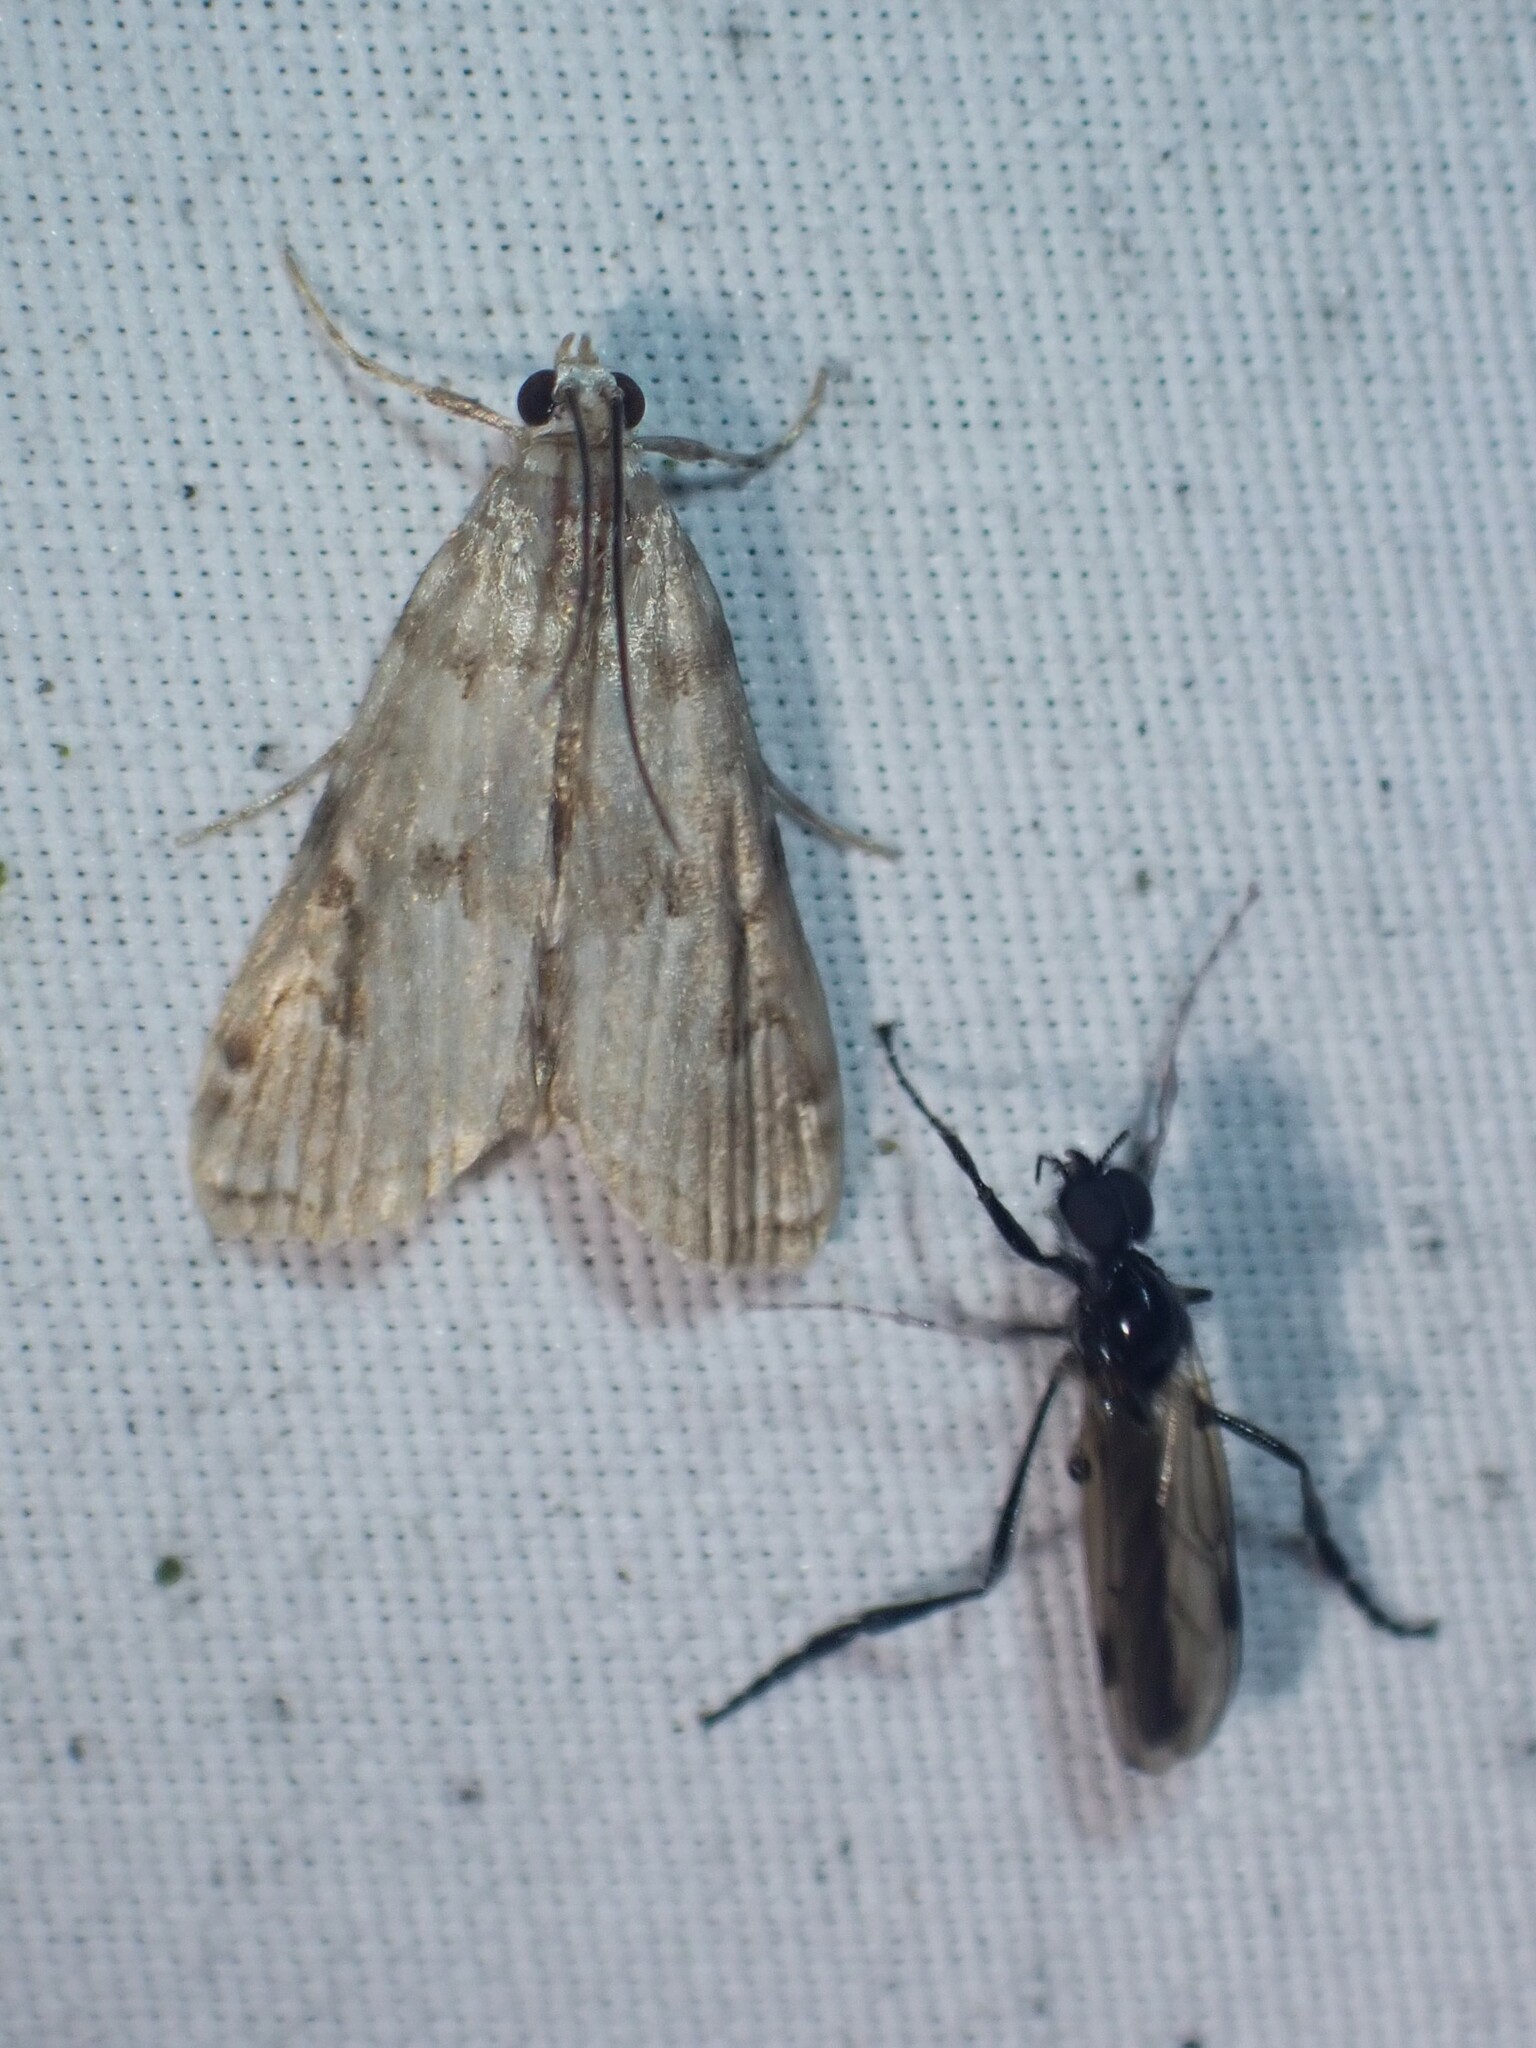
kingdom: Animalia
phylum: Arthropoda
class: Insecta
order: Lepidoptera
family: Crambidae
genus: Elophila
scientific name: Elophila gyralis
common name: Waterlily borer moth
